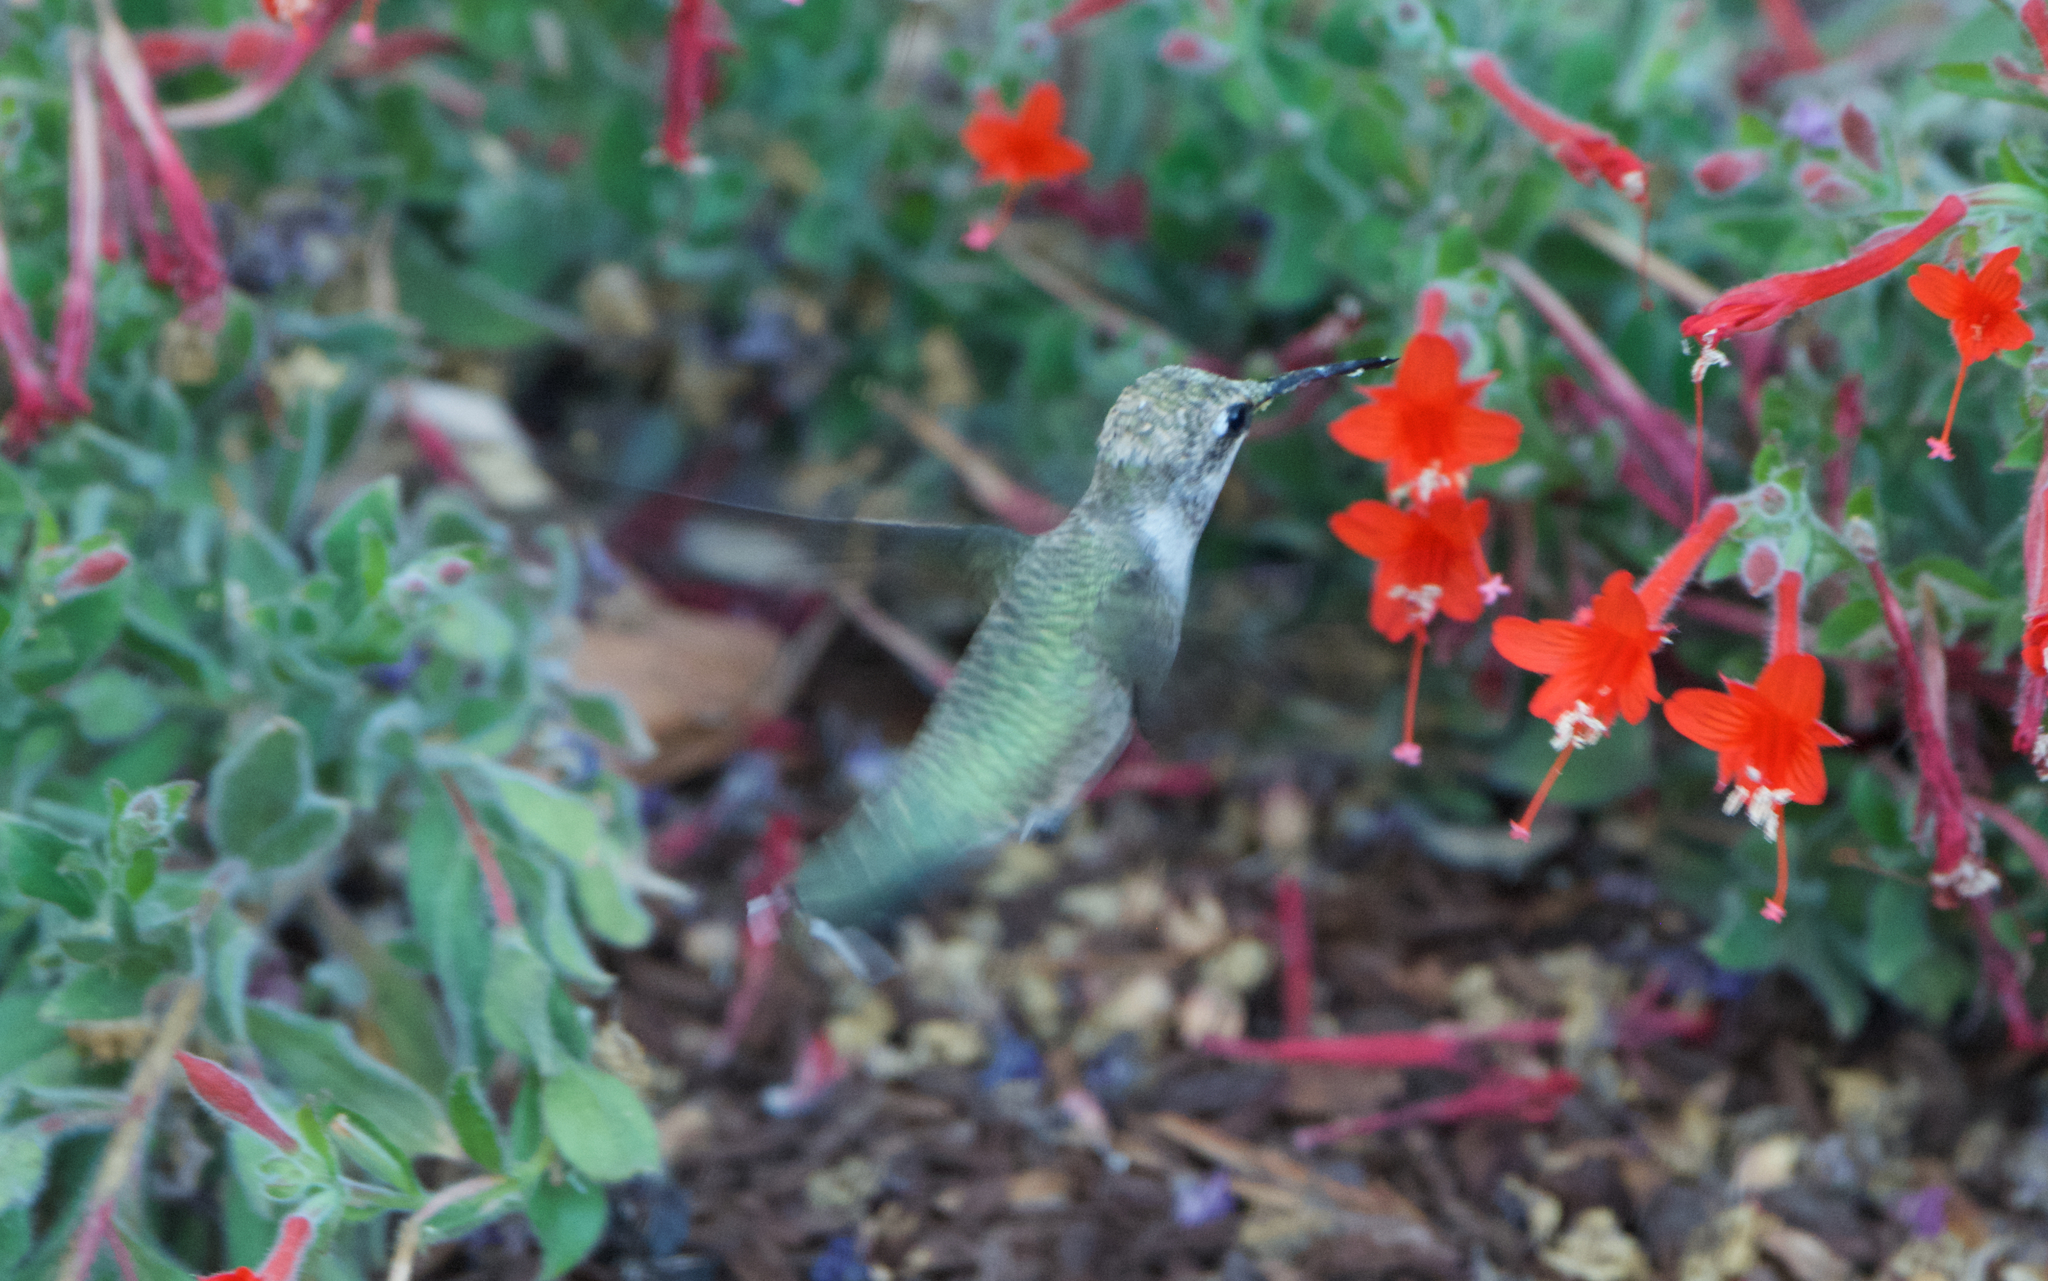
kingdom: Animalia
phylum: Chordata
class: Aves
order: Apodiformes
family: Trochilidae
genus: Calypte
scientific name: Calypte anna
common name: Anna's hummingbird
